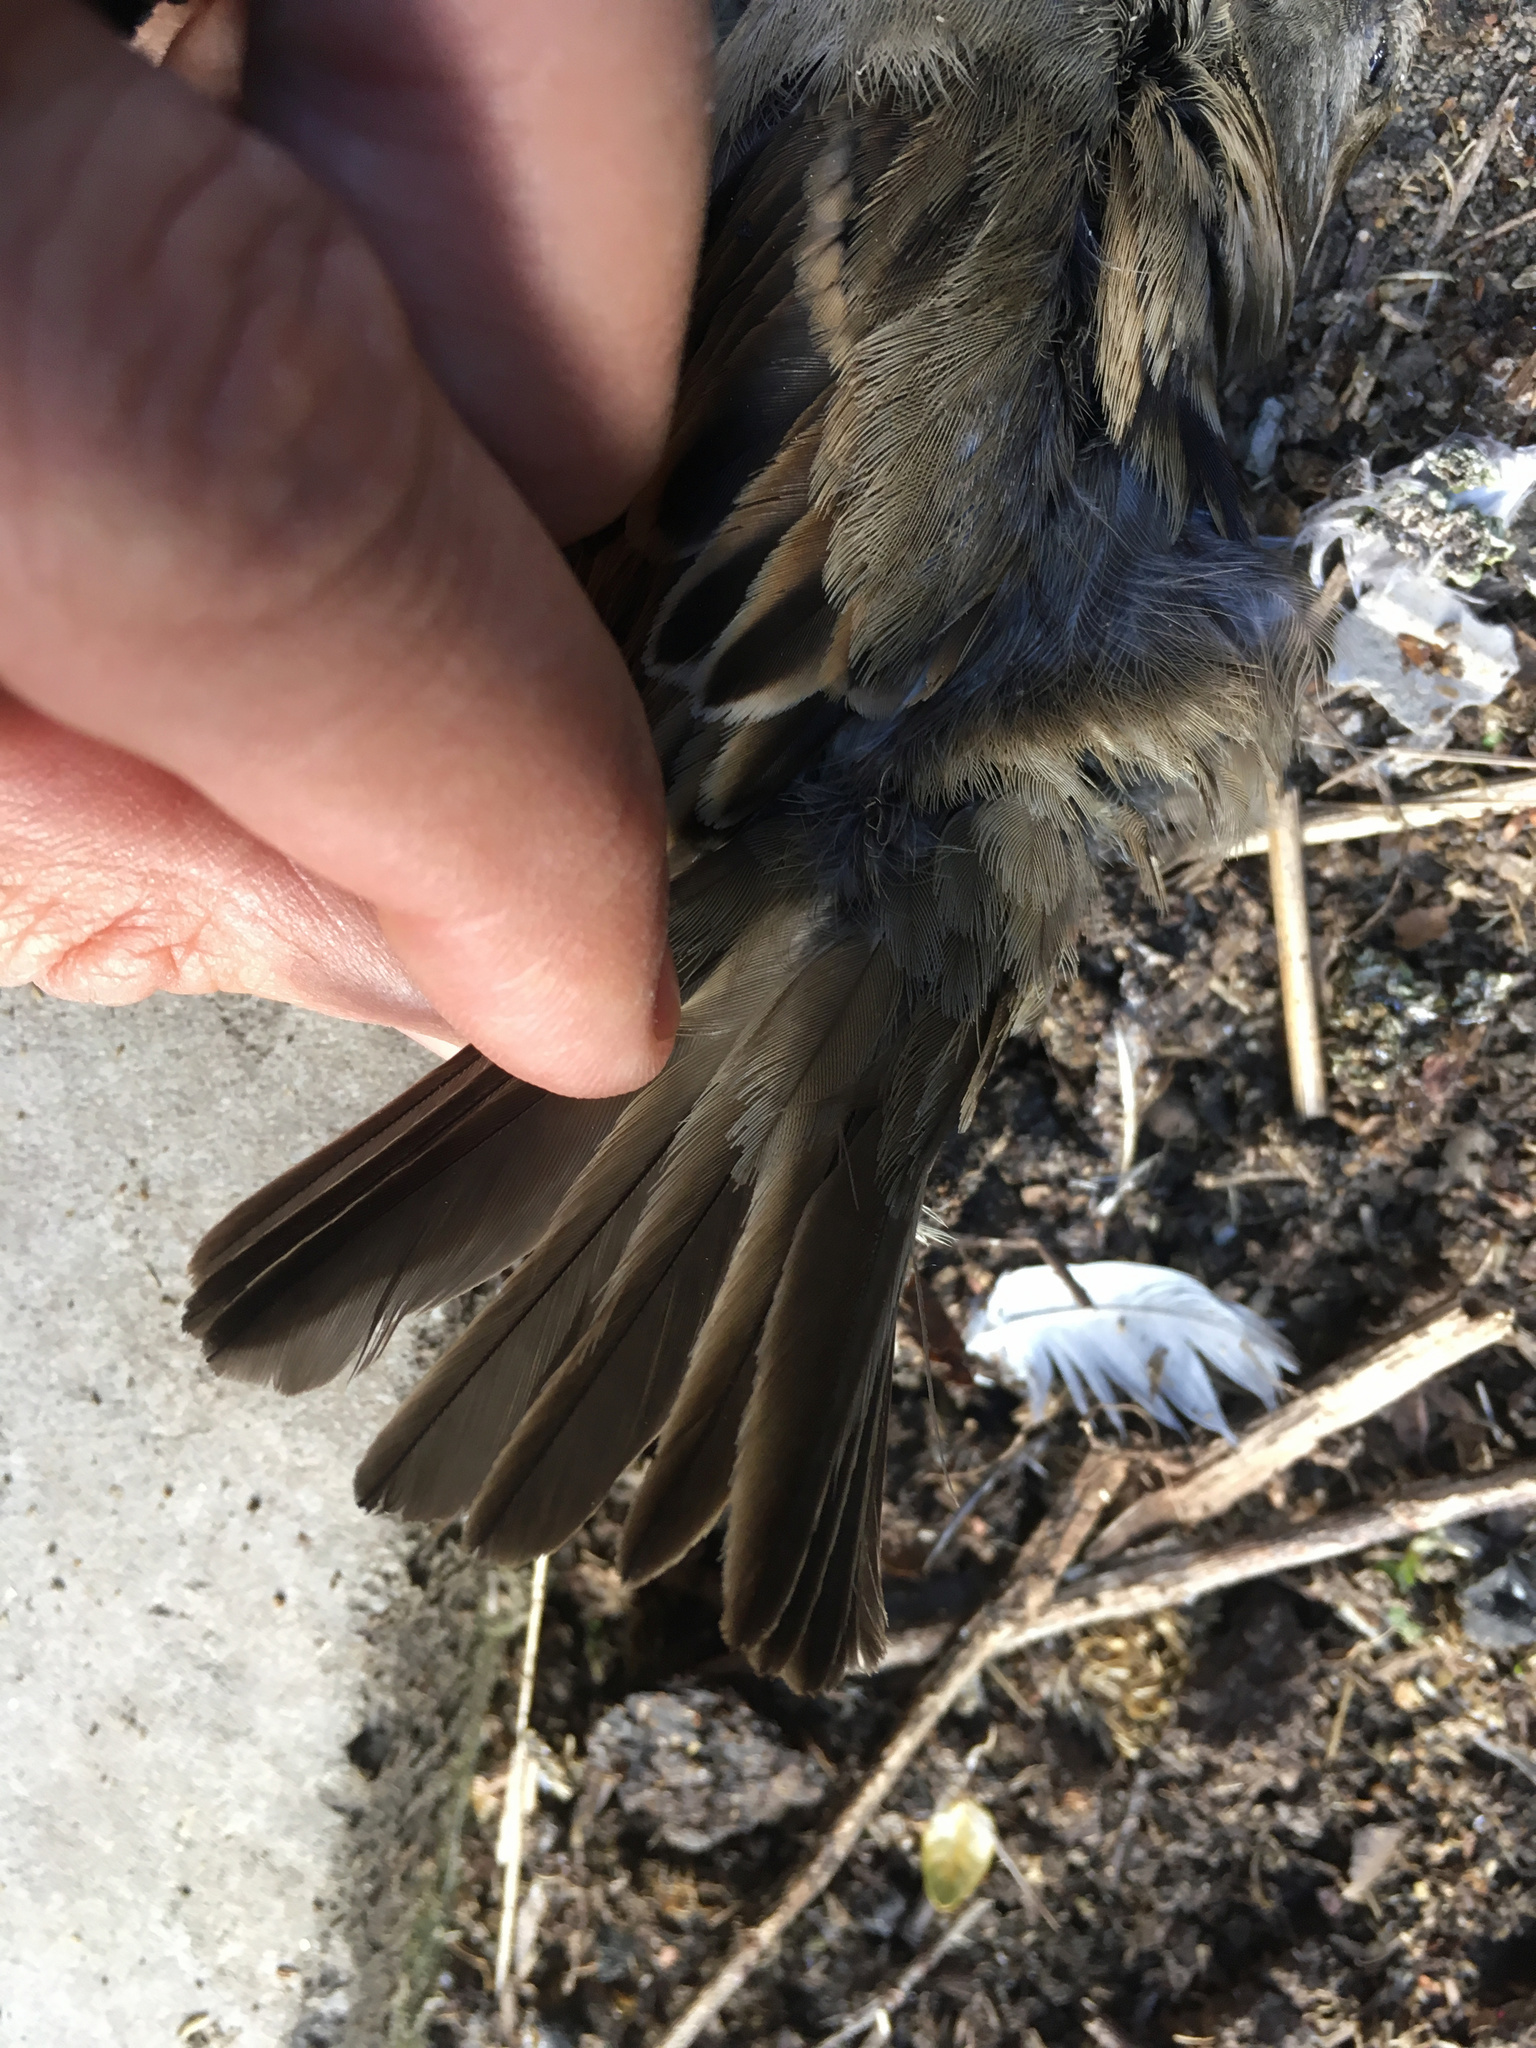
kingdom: Animalia
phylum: Chordata
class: Aves
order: Passeriformes
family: Passeridae
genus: Passer
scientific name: Passer domesticus
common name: House sparrow
